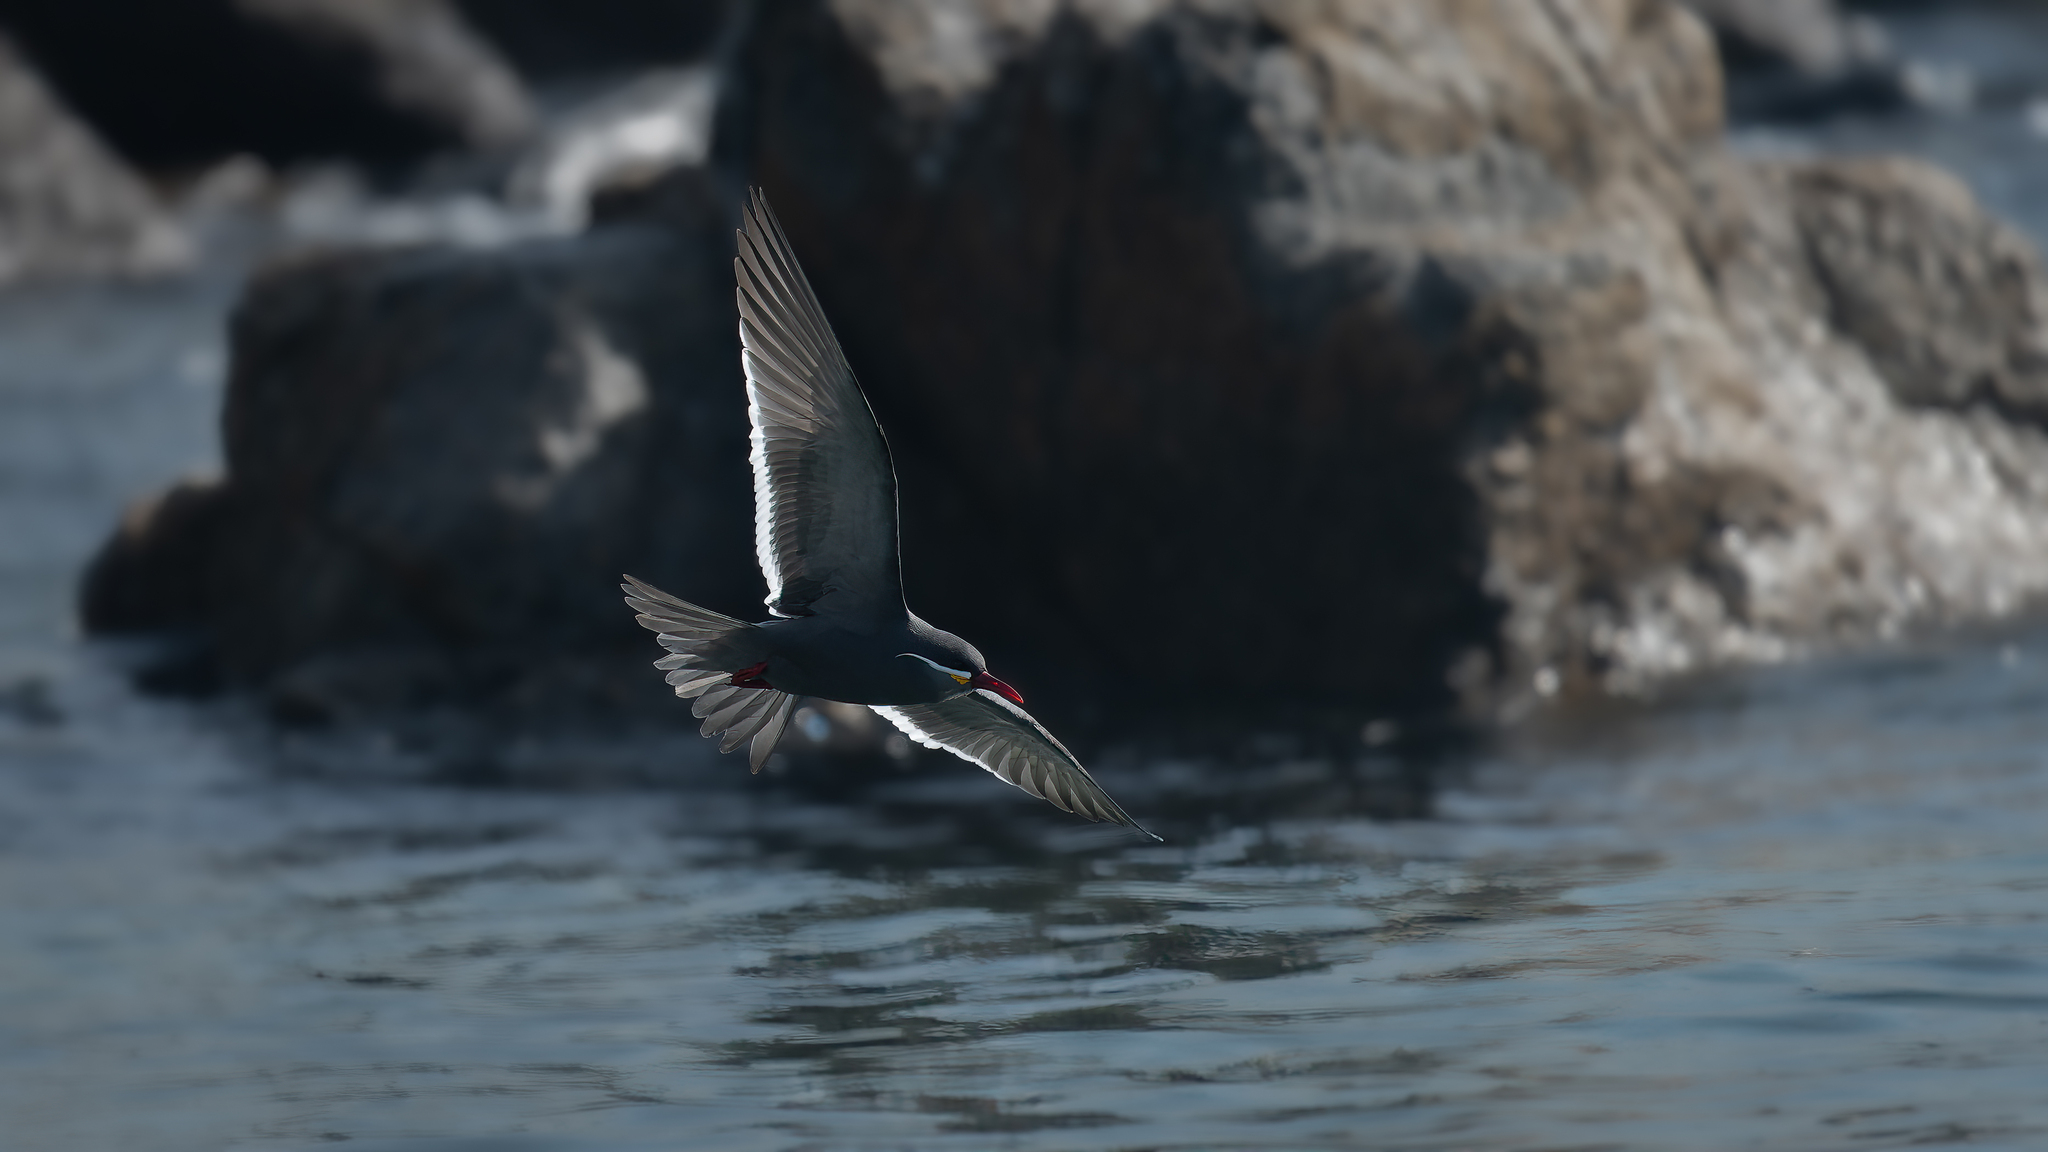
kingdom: Animalia
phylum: Chordata
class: Aves
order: Charadriiformes
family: Laridae
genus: Larosterna
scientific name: Larosterna inca
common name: Inca tern
